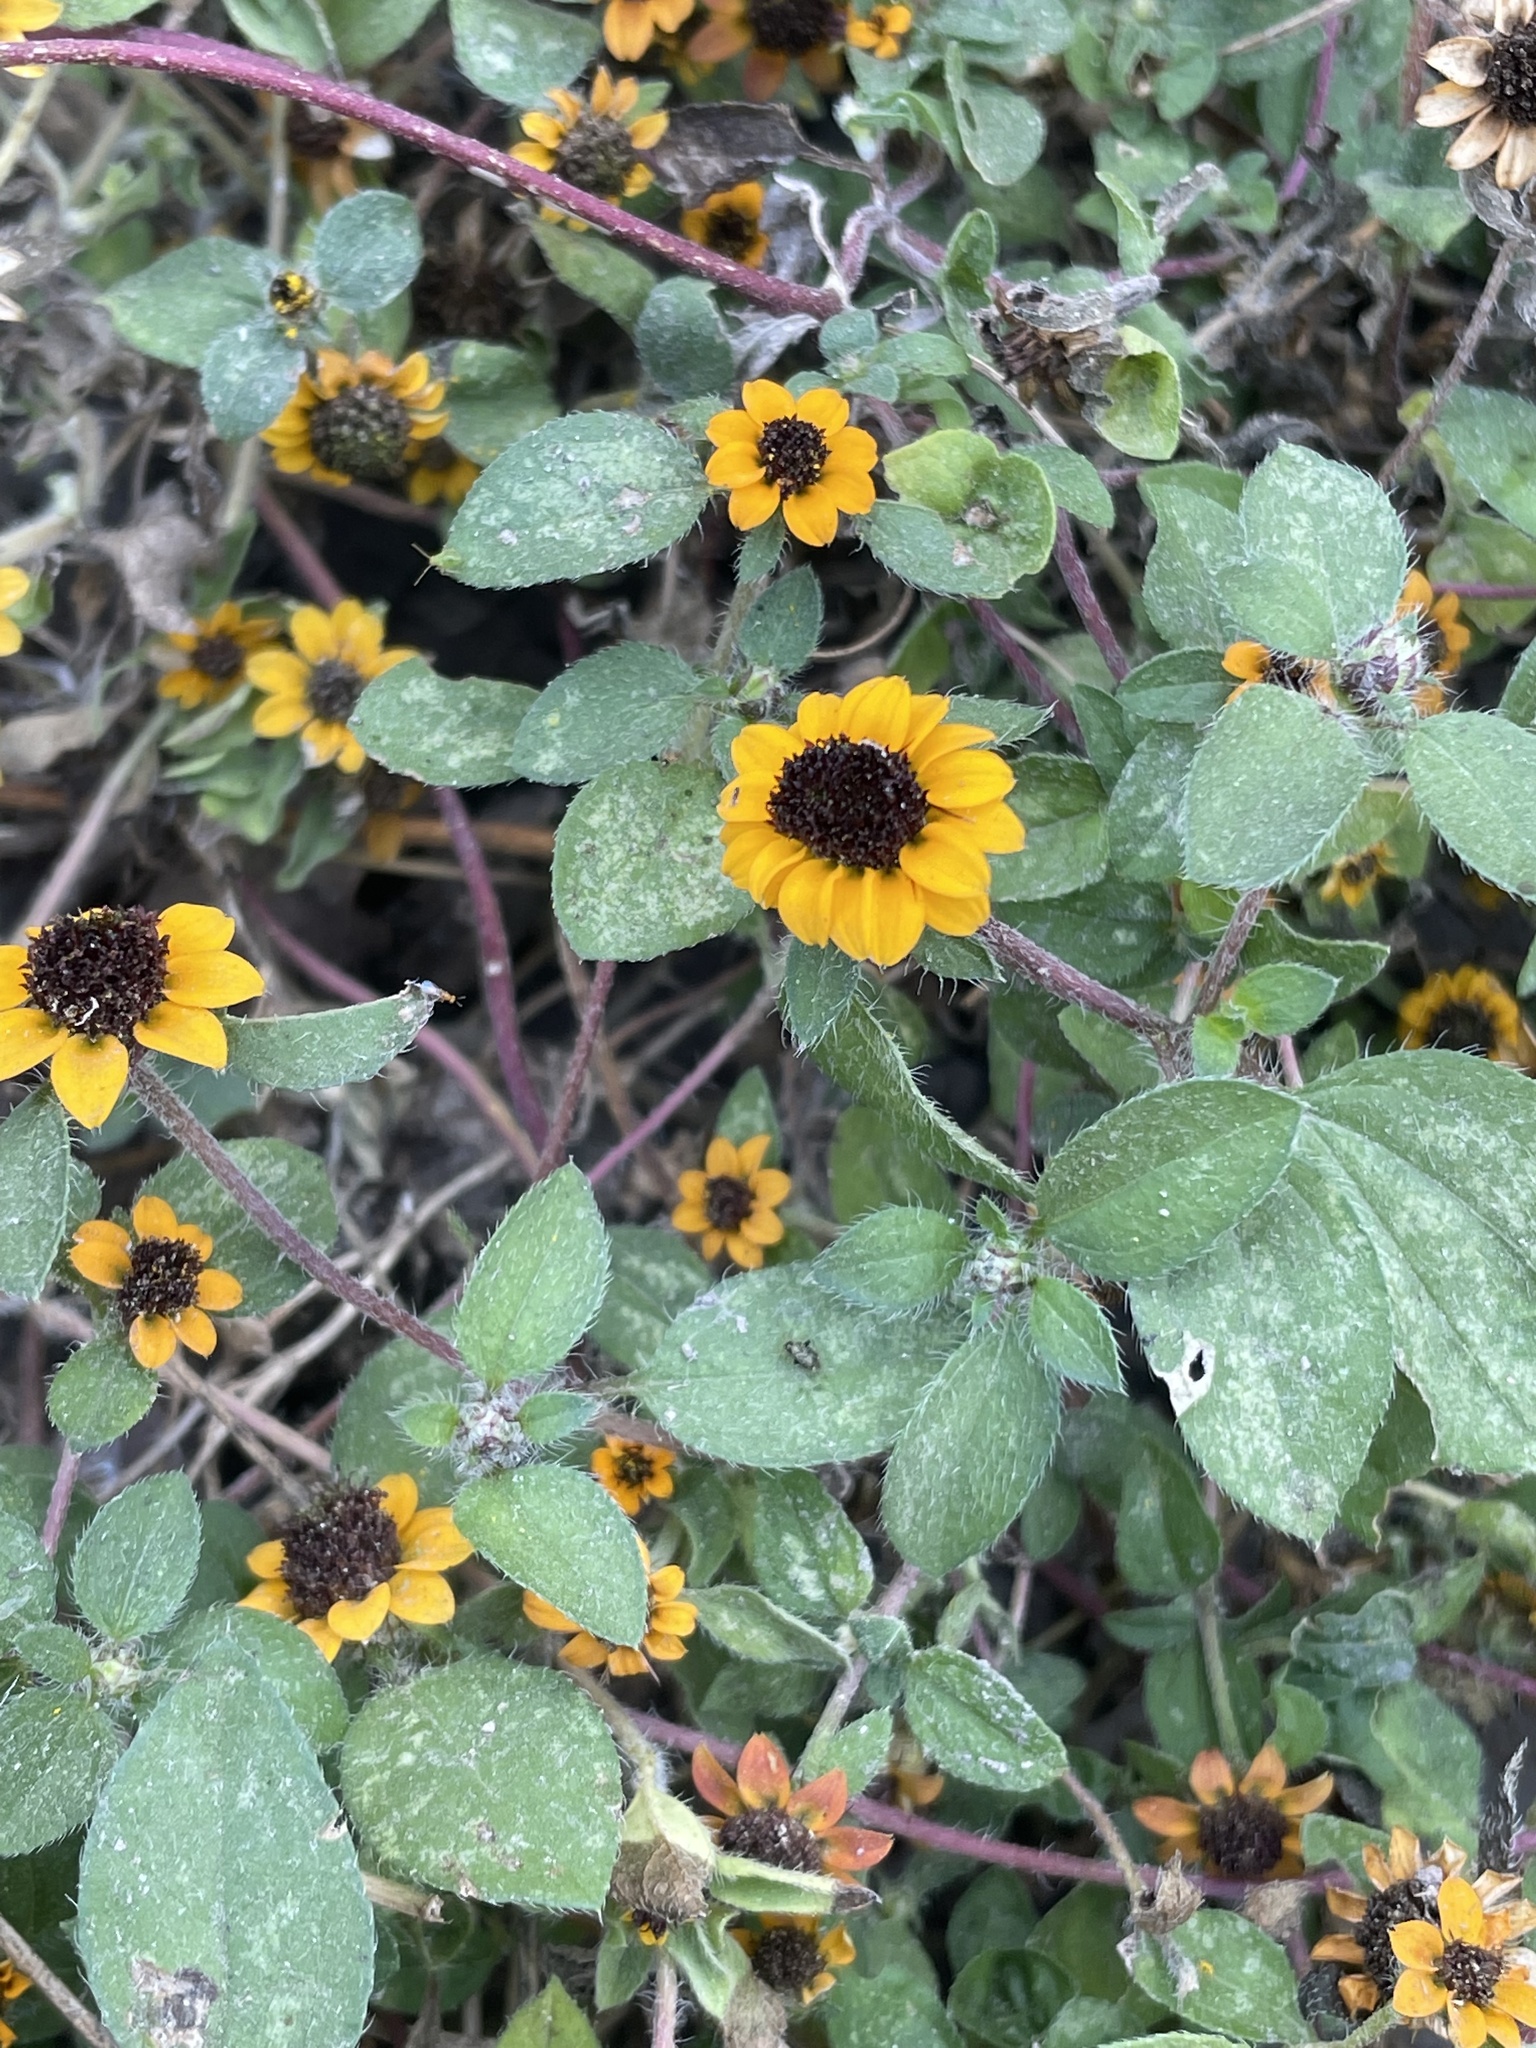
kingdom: Plantae
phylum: Tracheophyta
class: Magnoliopsida
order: Asterales
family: Asteraceae
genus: Sanvitalia
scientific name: Sanvitalia procumbens
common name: Mexican creeping zinnia
